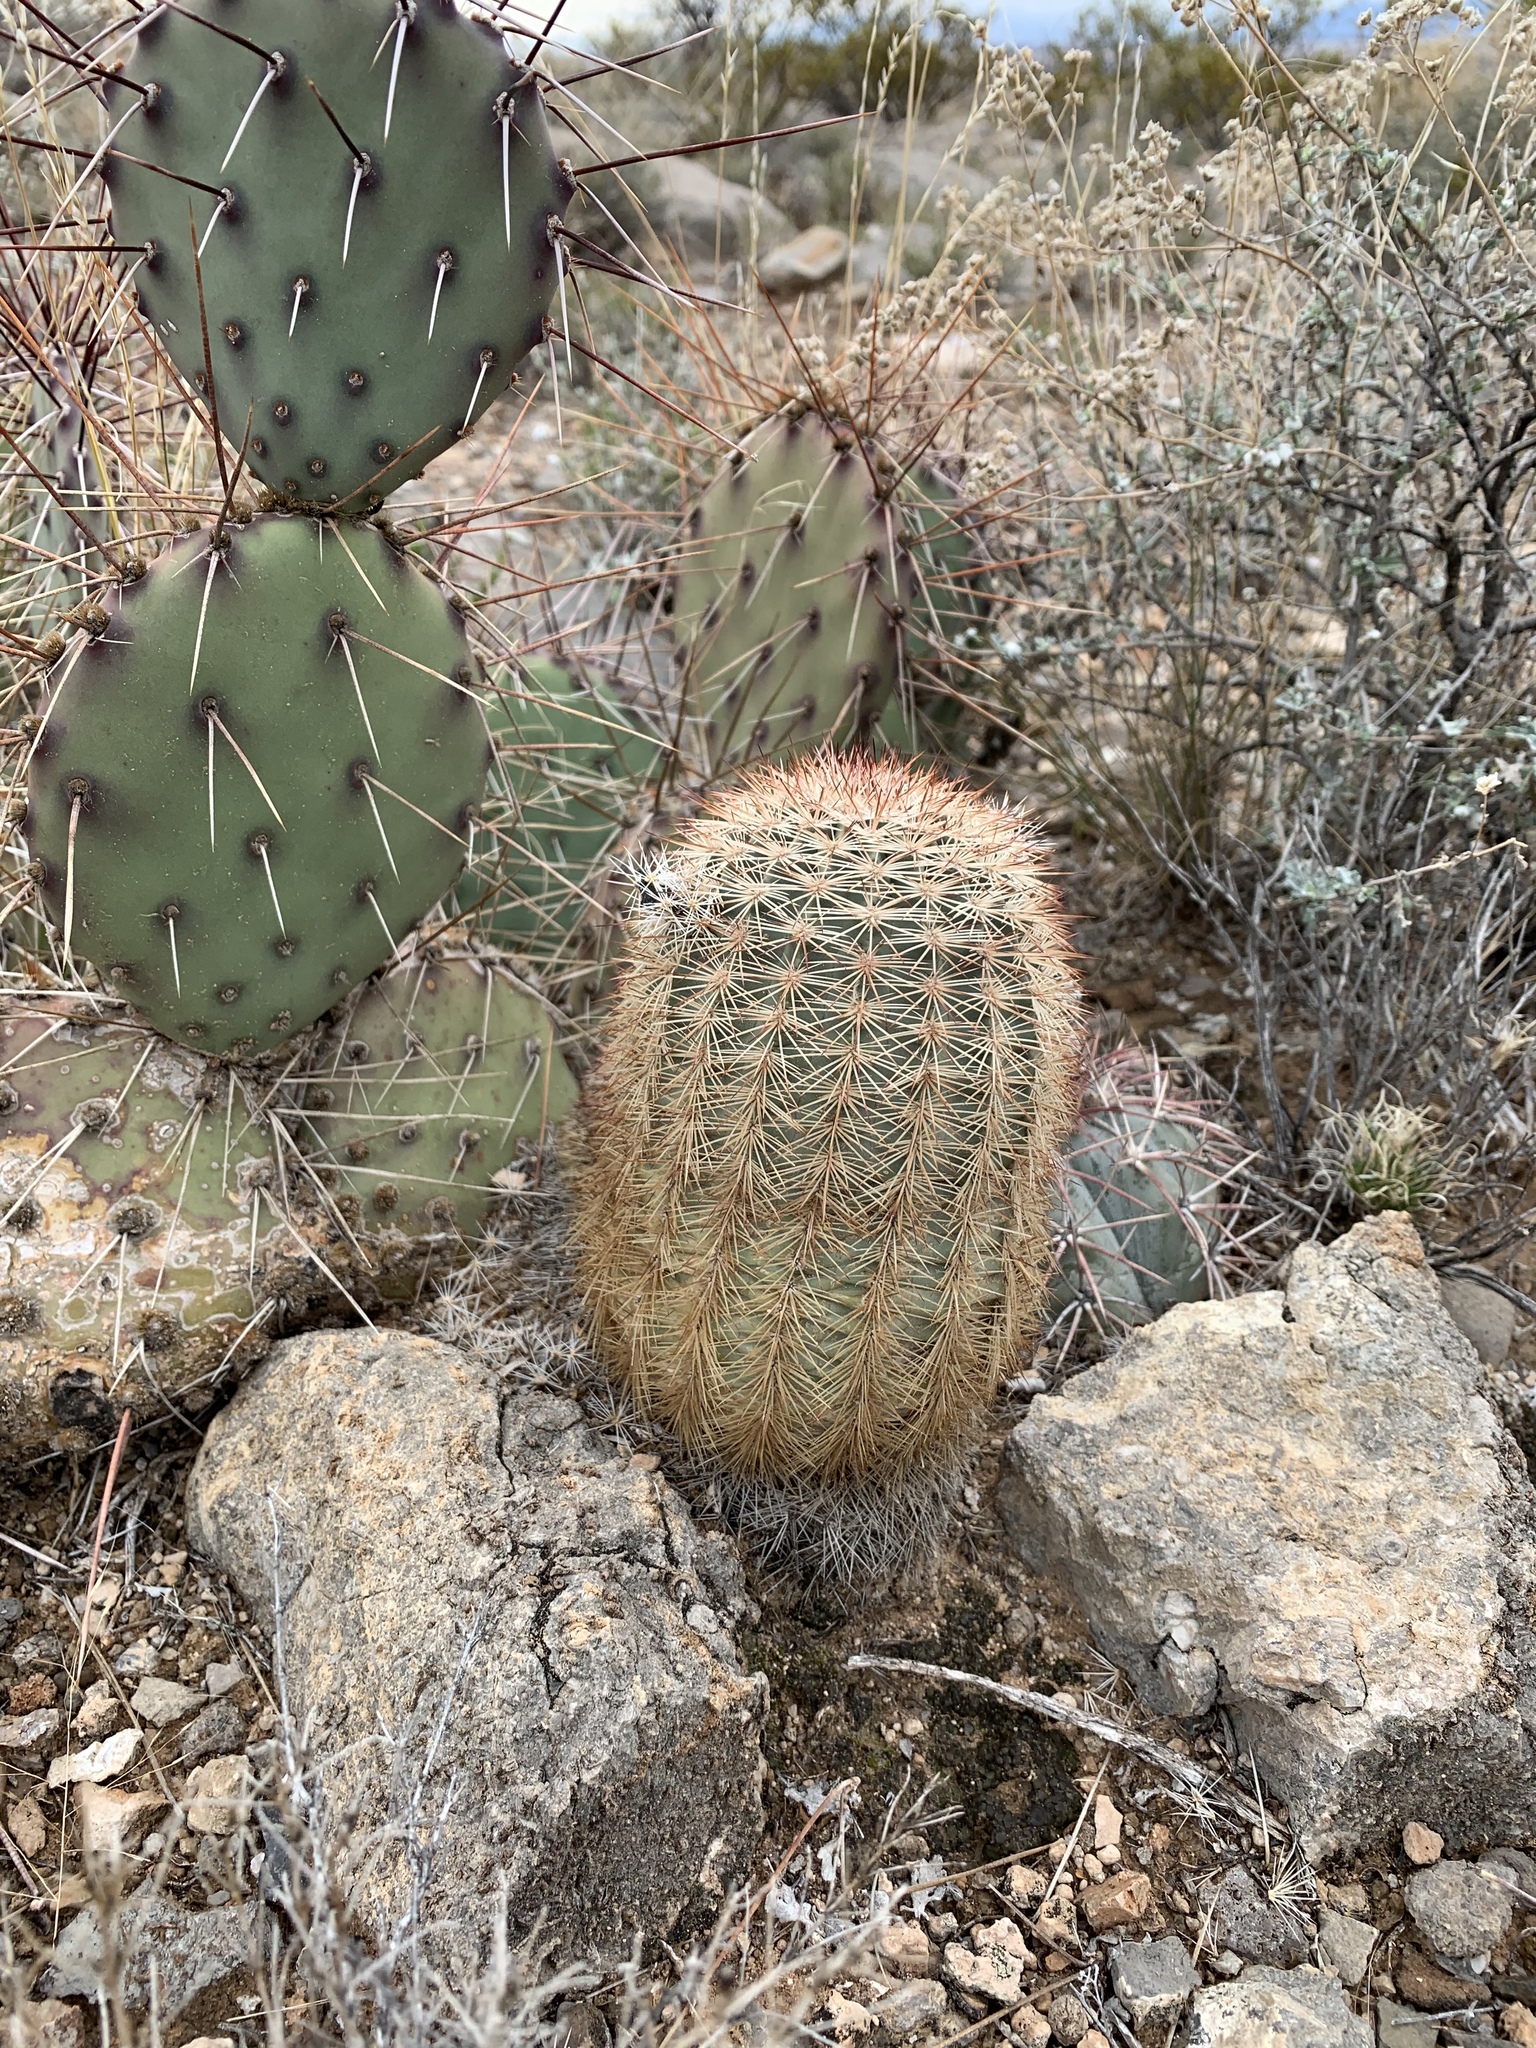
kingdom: Plantae
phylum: Tracheophyta
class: Magnoliopsida
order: Caryophyllales
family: Cactaceae
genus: Echinocereus
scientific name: Echinocereus dasyacanthus
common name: Spiny hedgehog cactus
